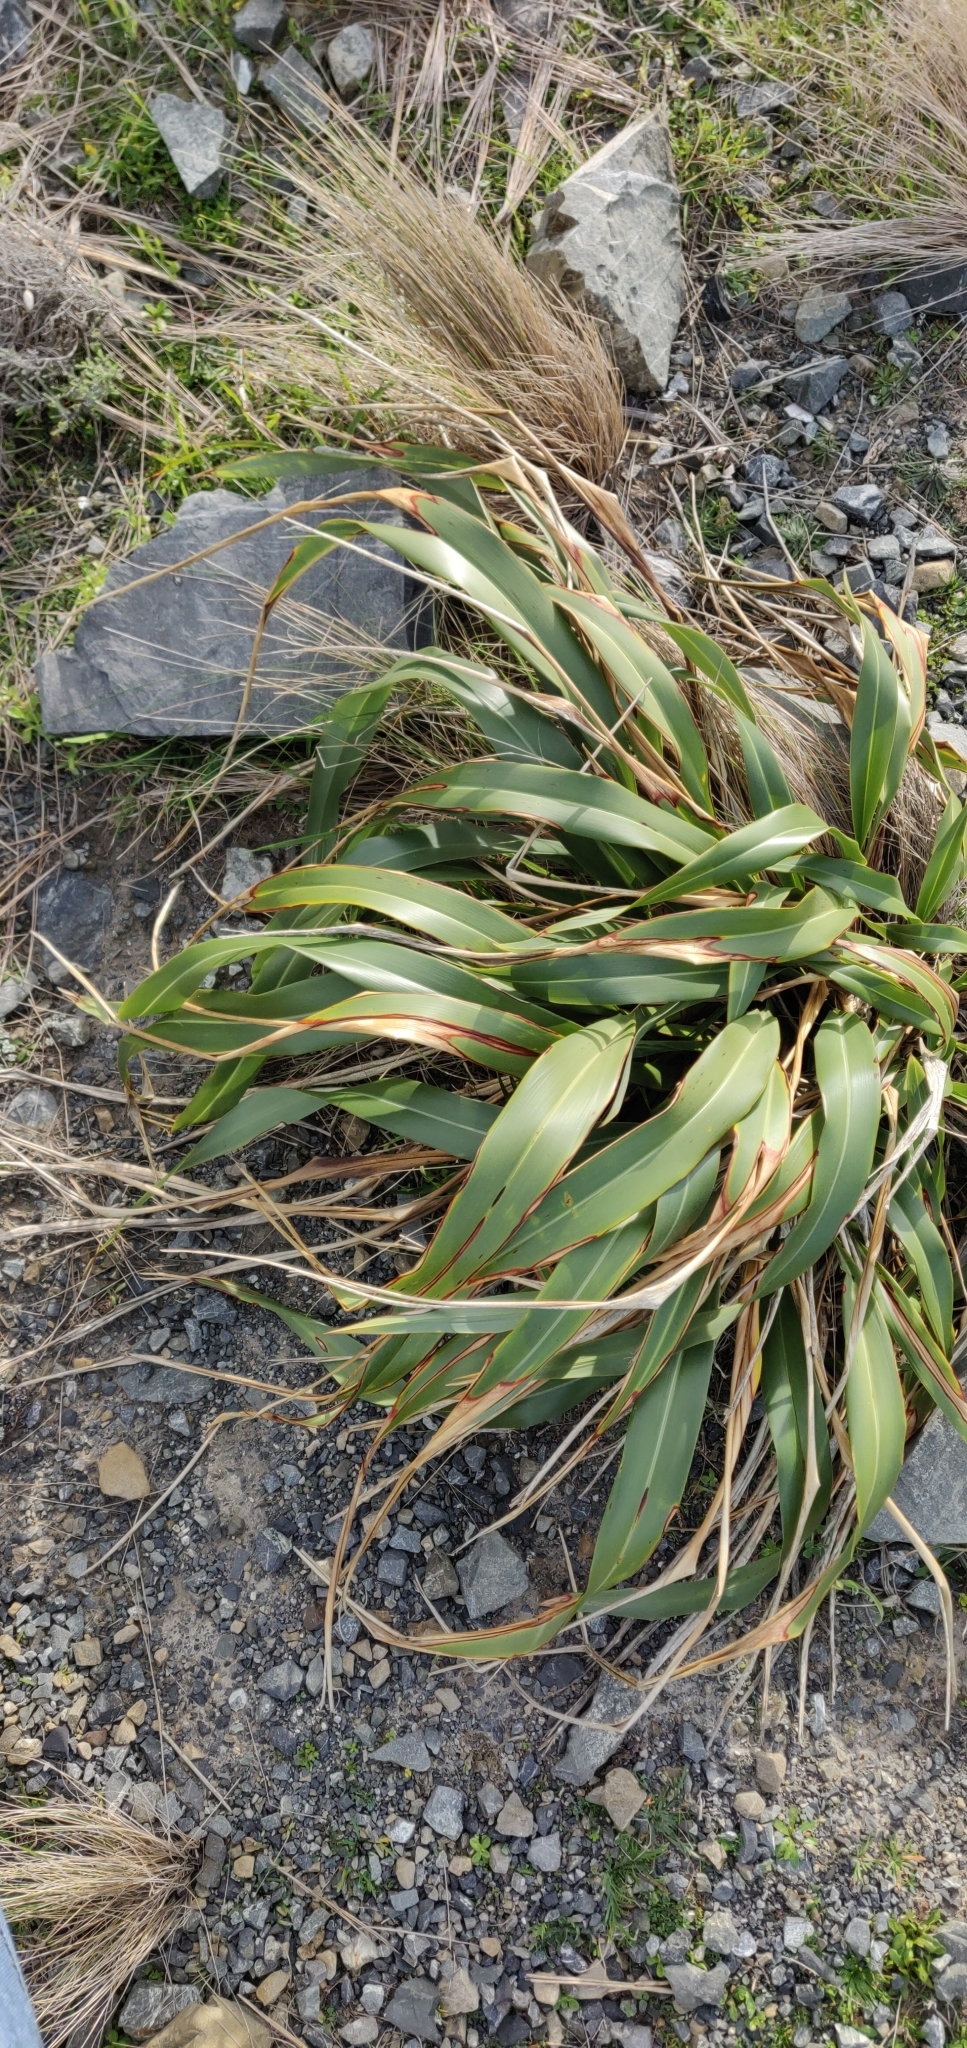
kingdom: Plantae
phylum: Tracheophyta
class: Liliopsida
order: Asparagales
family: Asphodelaceae
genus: Phormium
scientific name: Phormium colensoi
